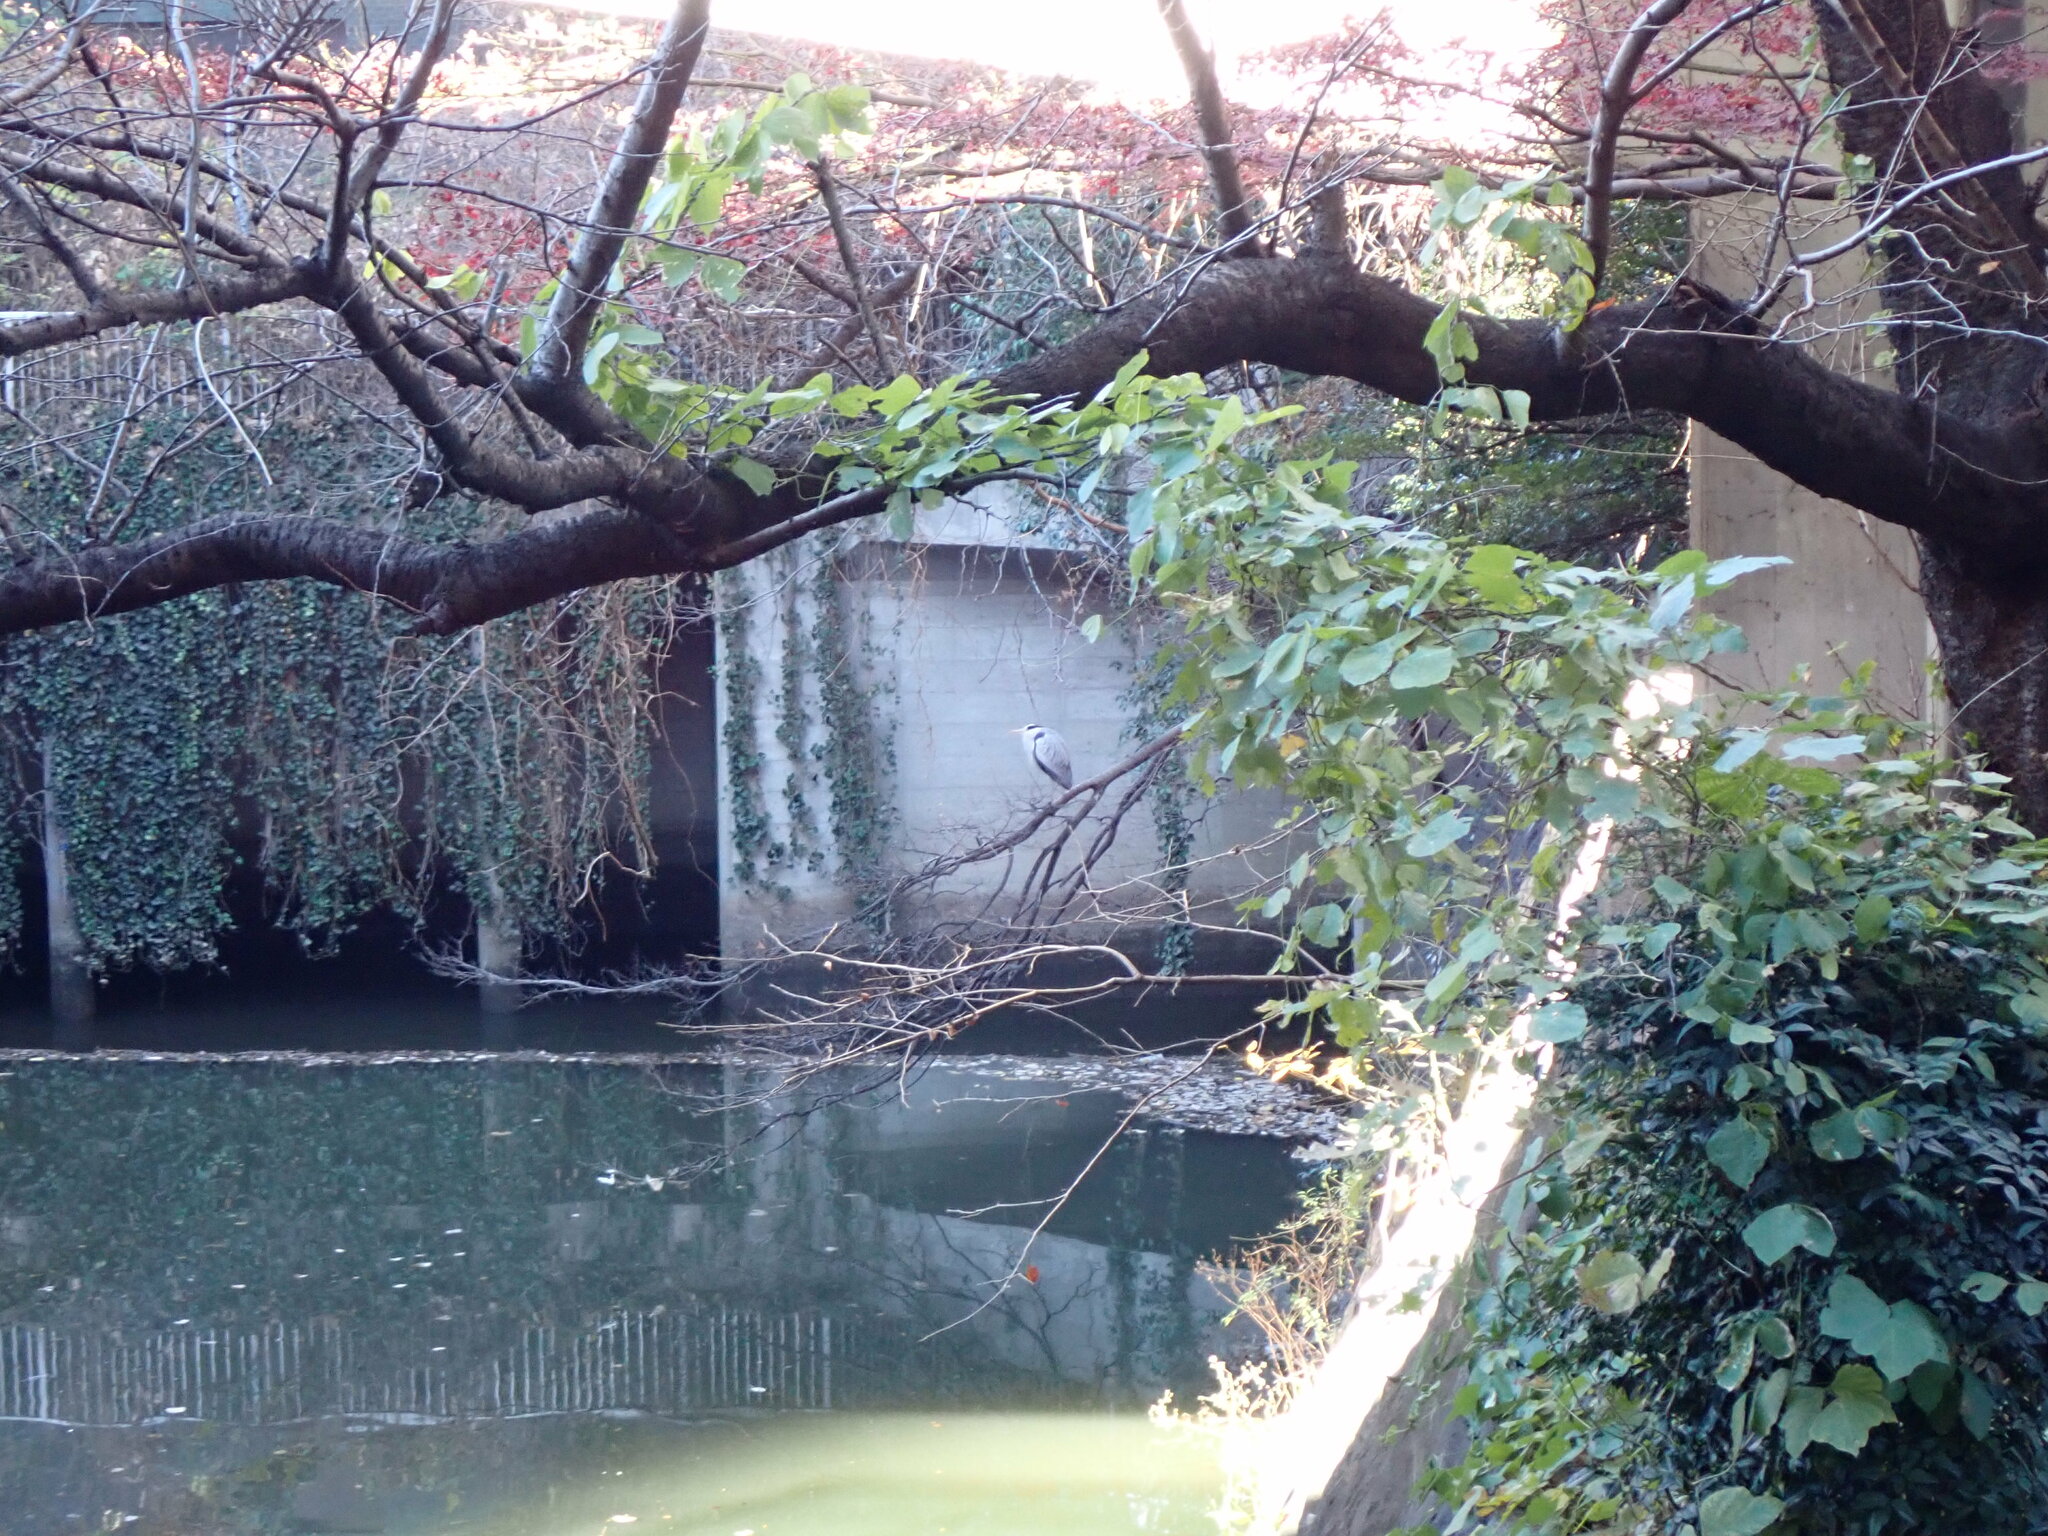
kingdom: Animalia
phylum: Chordata
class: Aves
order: Pelecaniformes
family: Ardeidae
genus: Ardea
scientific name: Ardea cinerea
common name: Grey heron
